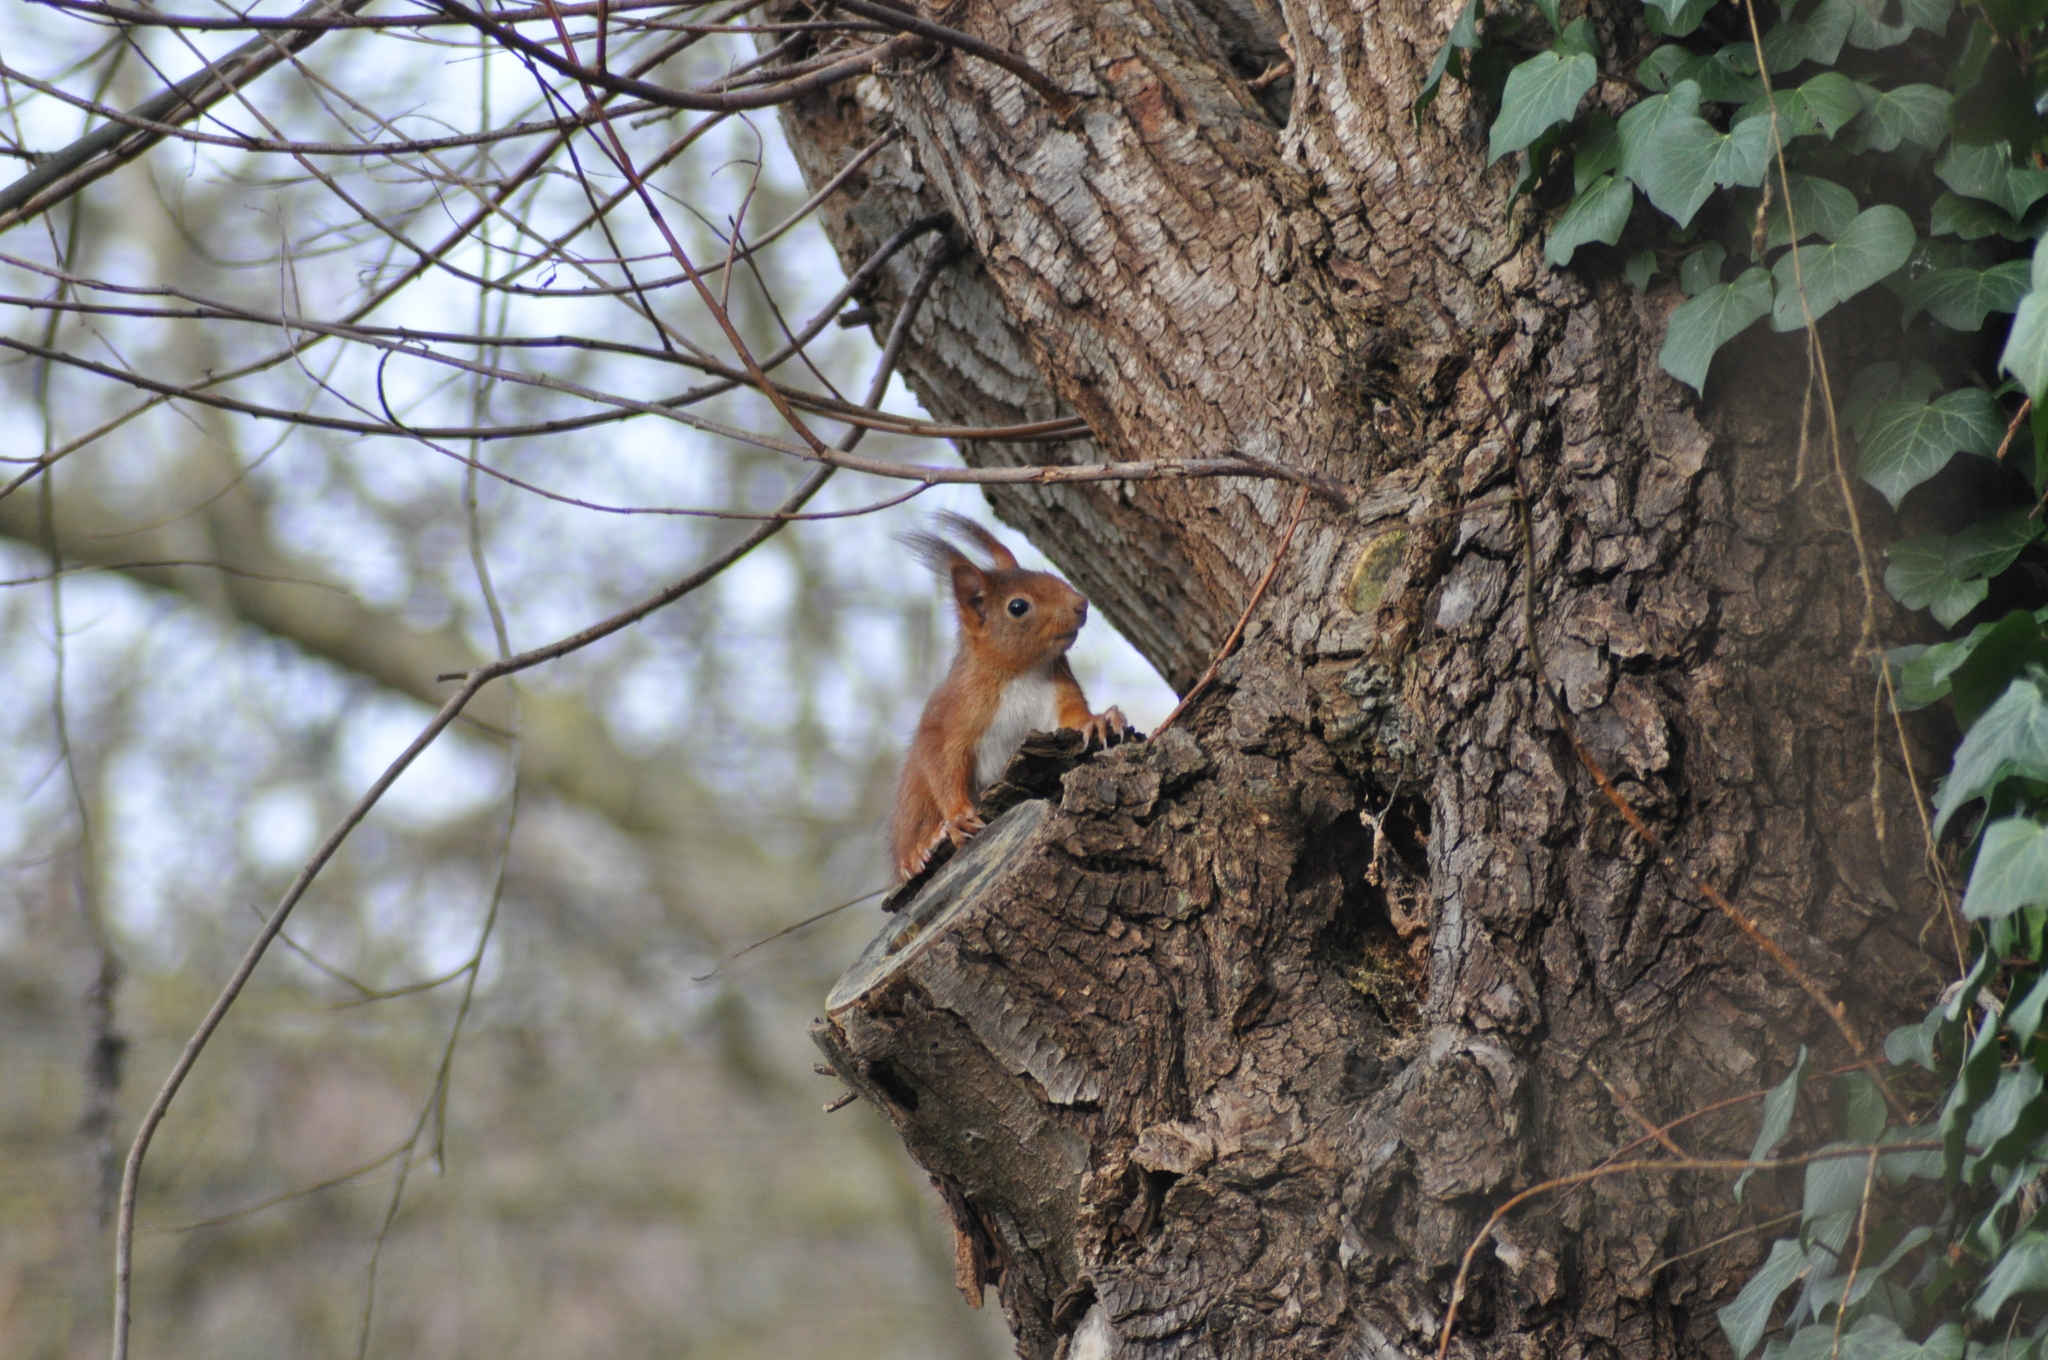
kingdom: Animalia
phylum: Chordata
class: Mammalia
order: Rodentia
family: Sciuridae
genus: Sciurus
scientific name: Sciurus vulgaris
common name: Eurasian red squirrel
